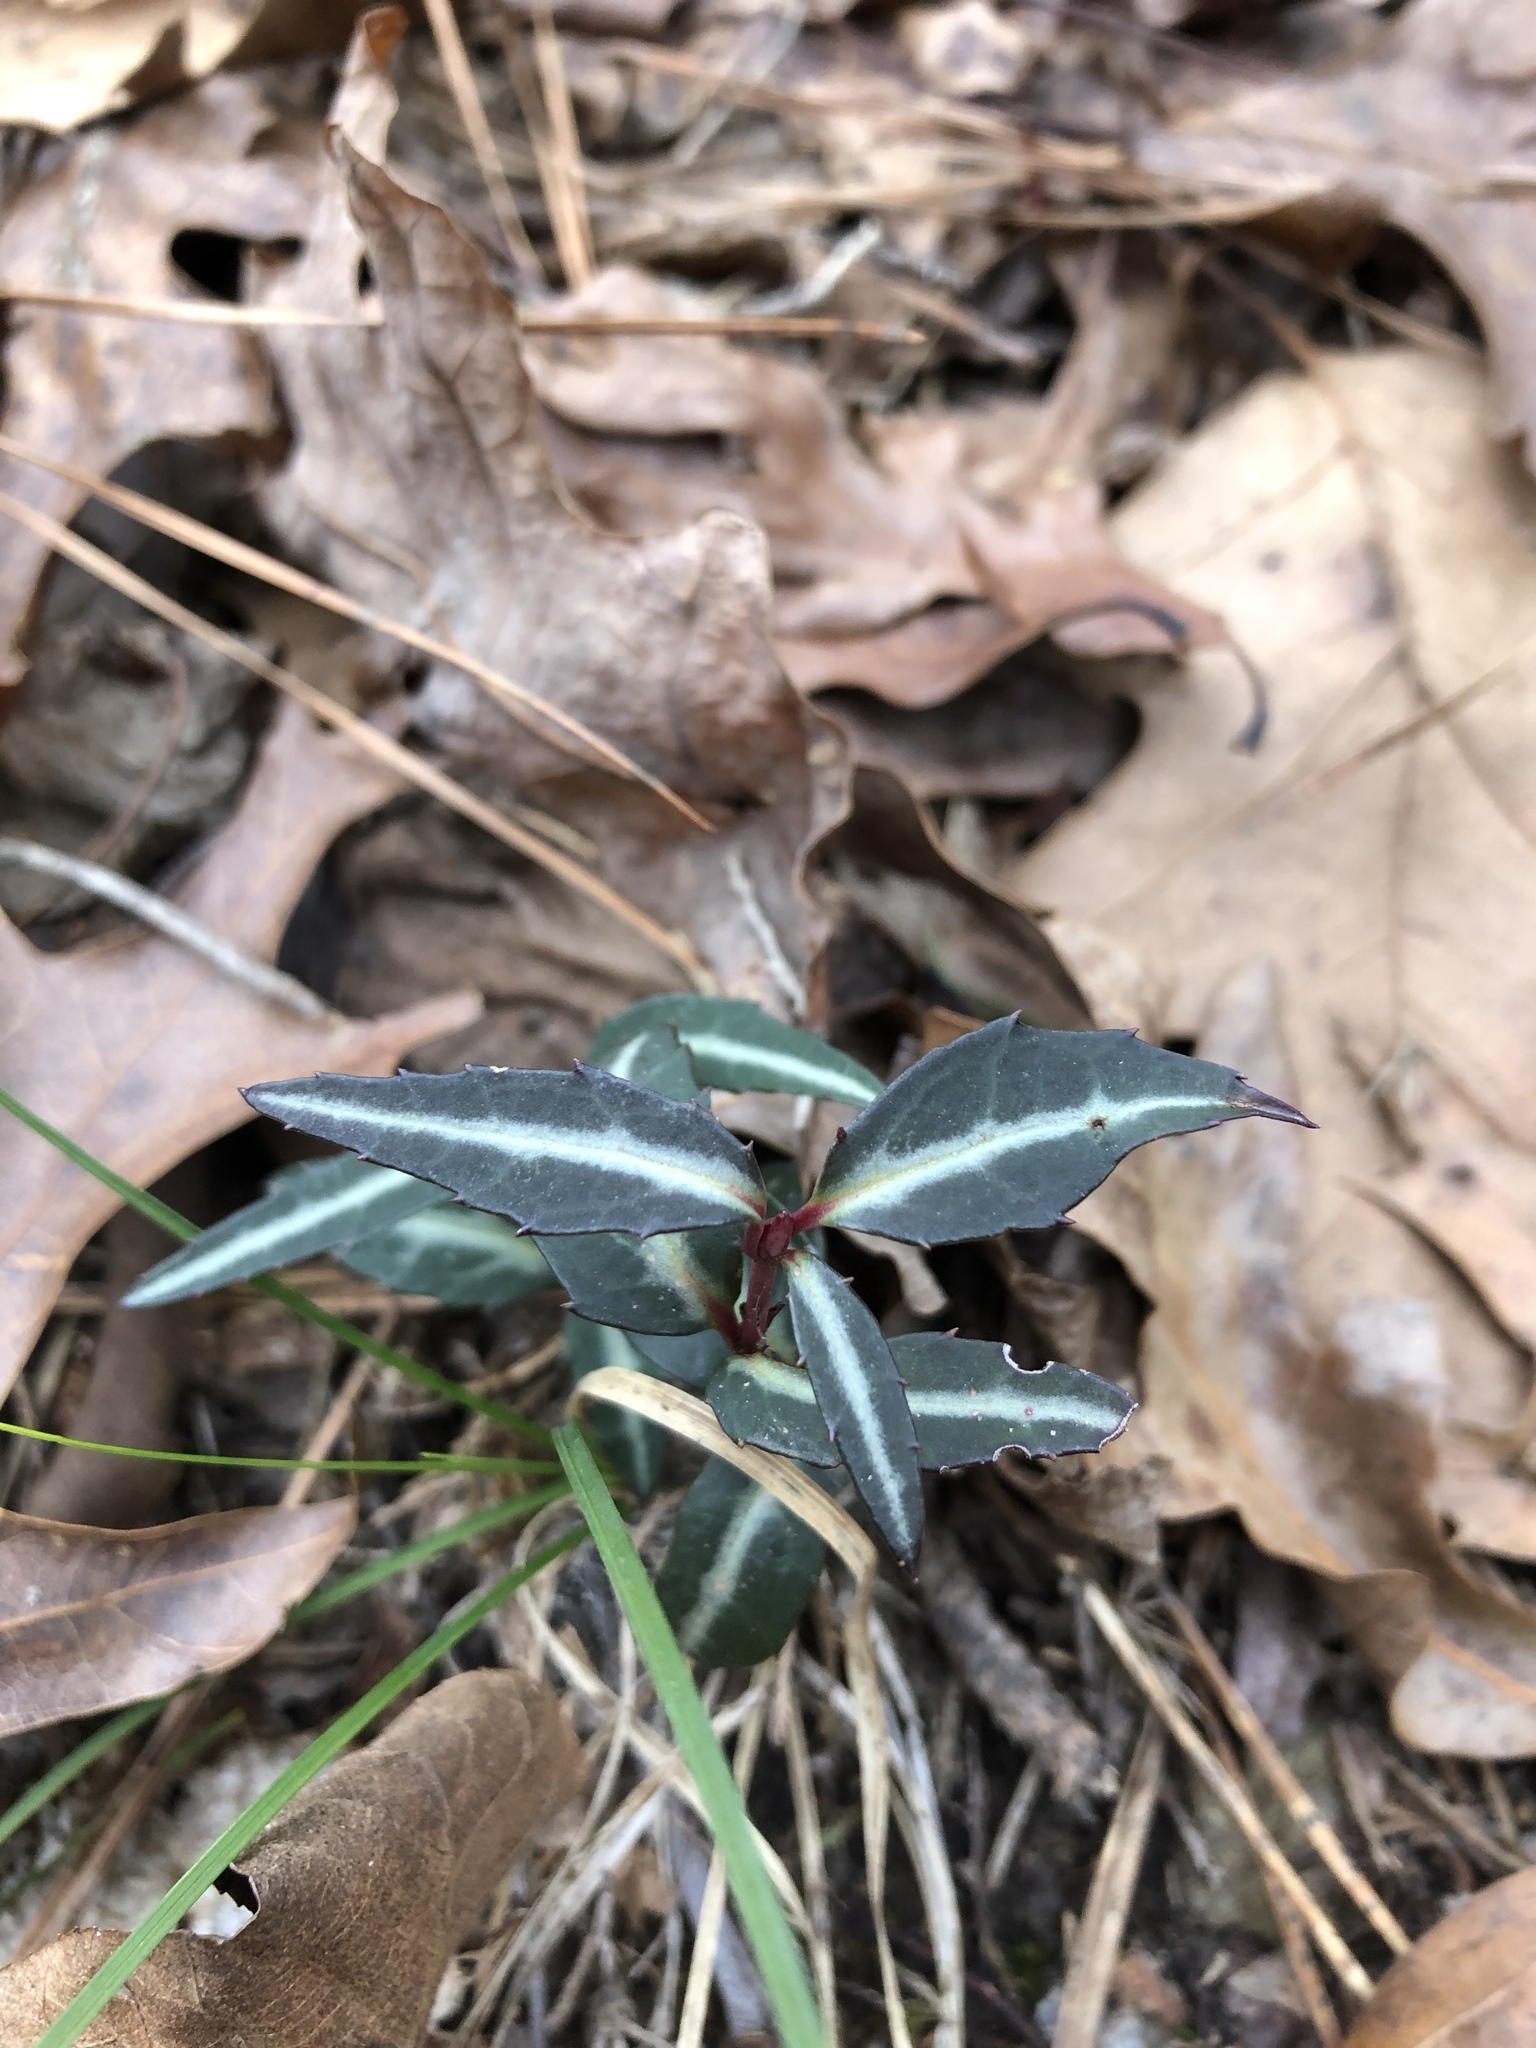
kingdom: Plantae
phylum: Tracheophyta
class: Magnoliopsida
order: Ericales
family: Ericaceae
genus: Chimaphila
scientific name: Chimaphila maculata
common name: Spotted pipsissewa
